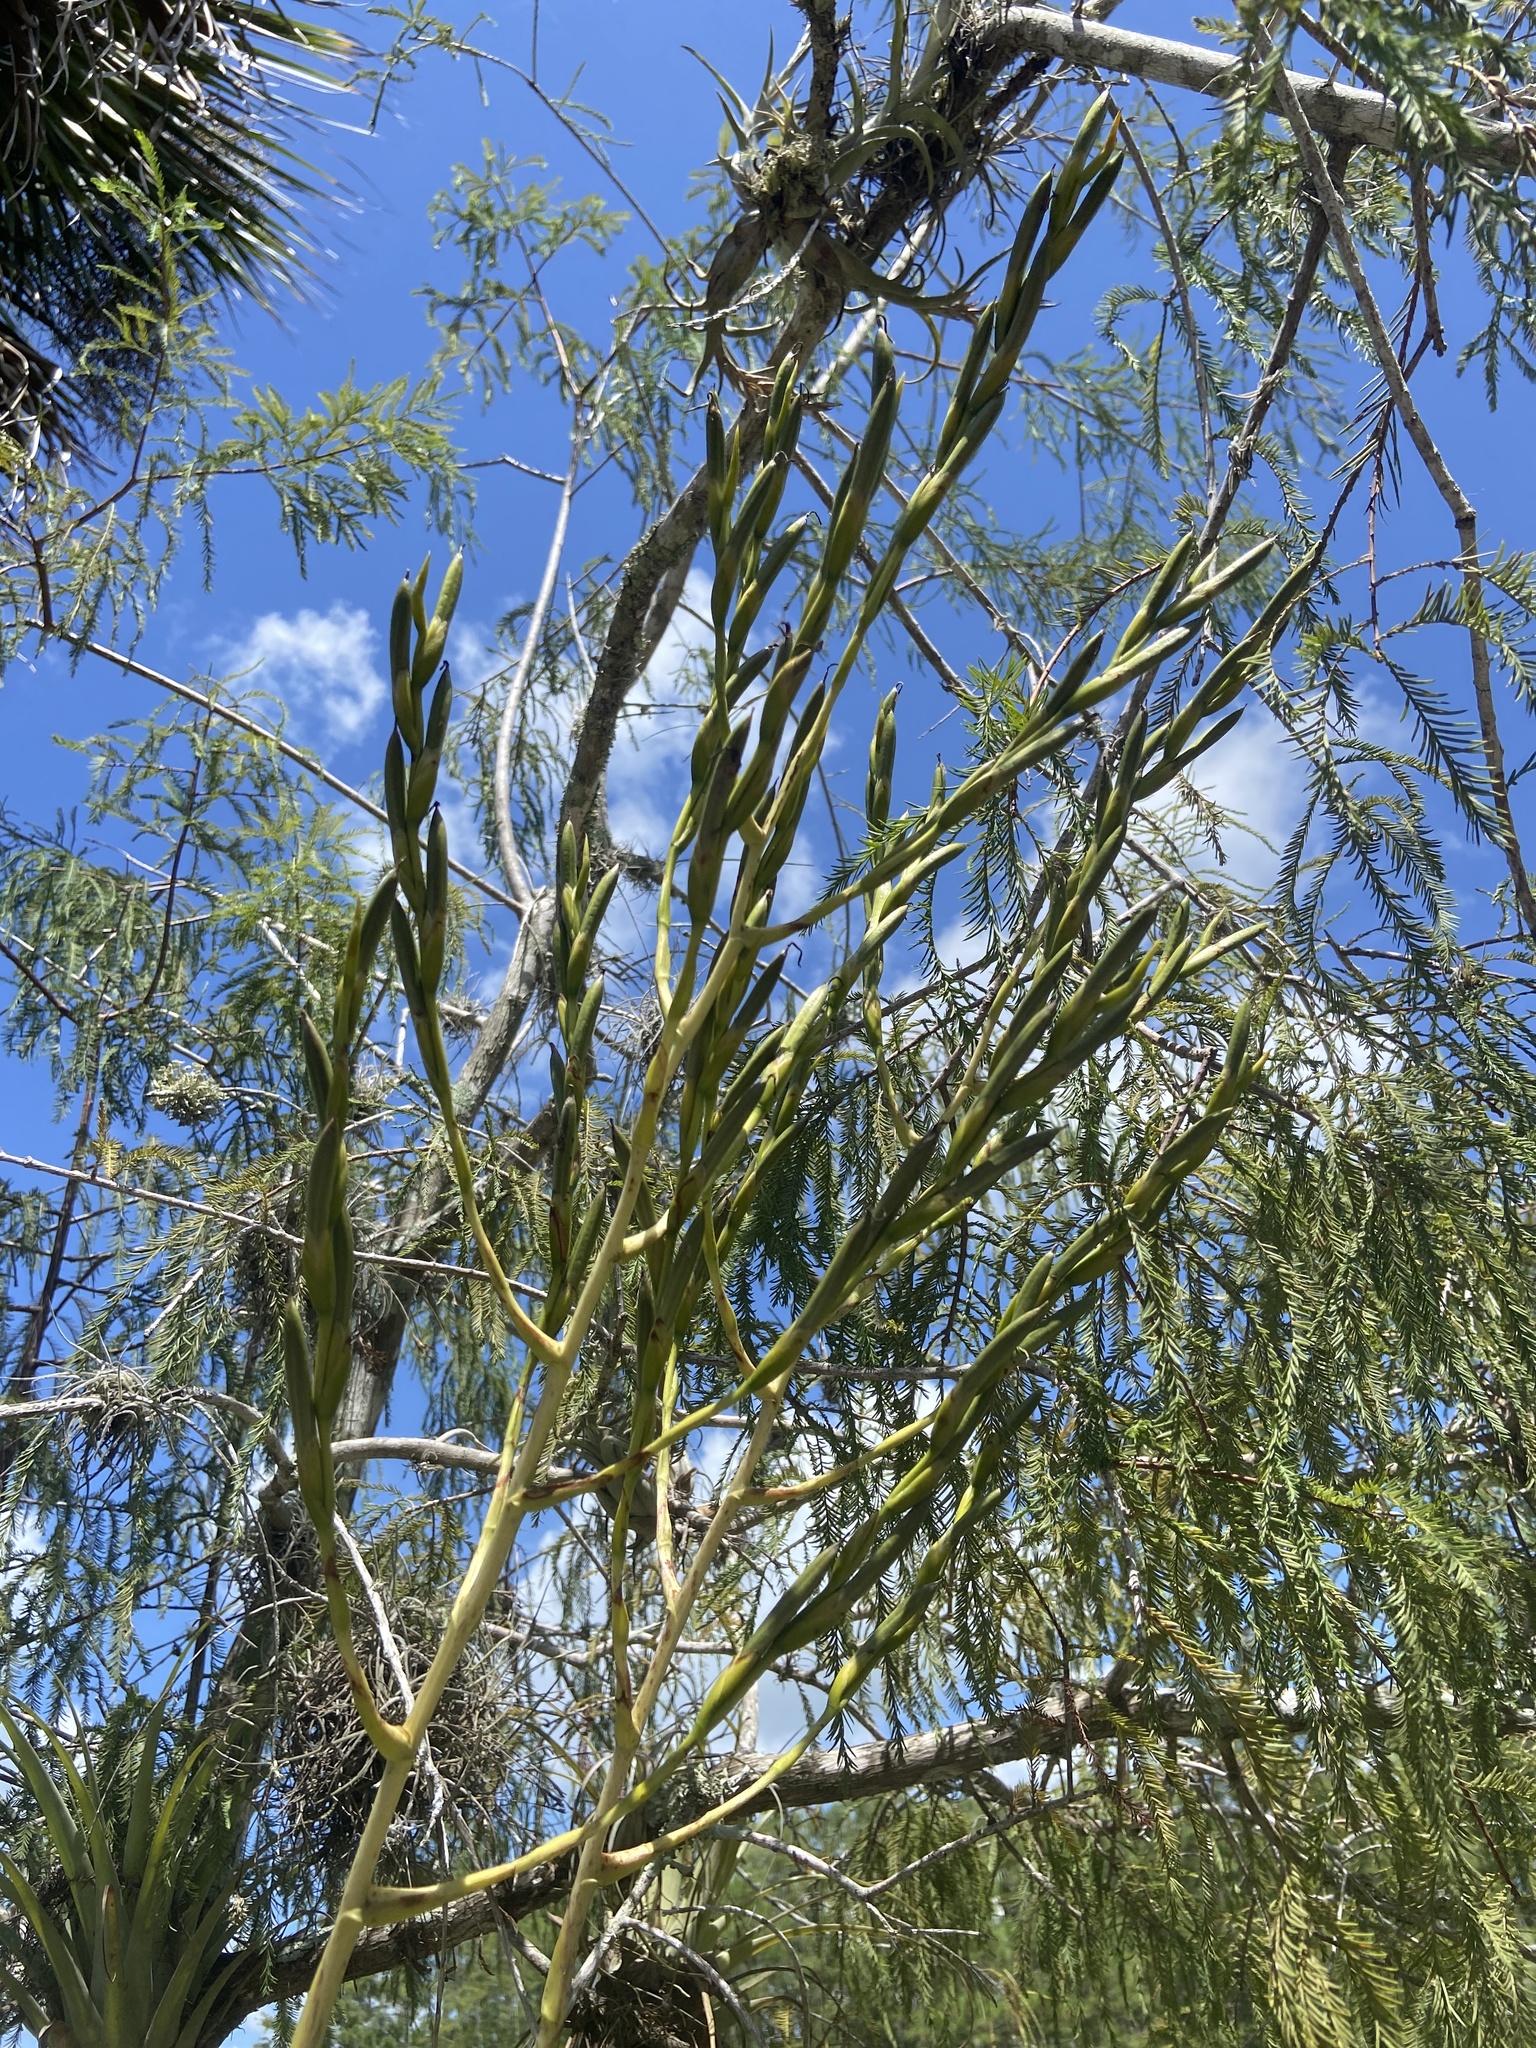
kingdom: Plantae
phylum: Tracheophyta
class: Liliopsida
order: Poales
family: Bromeliaceae
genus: Tillandsia
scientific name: Tillandsia utriculata
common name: Wild pine
